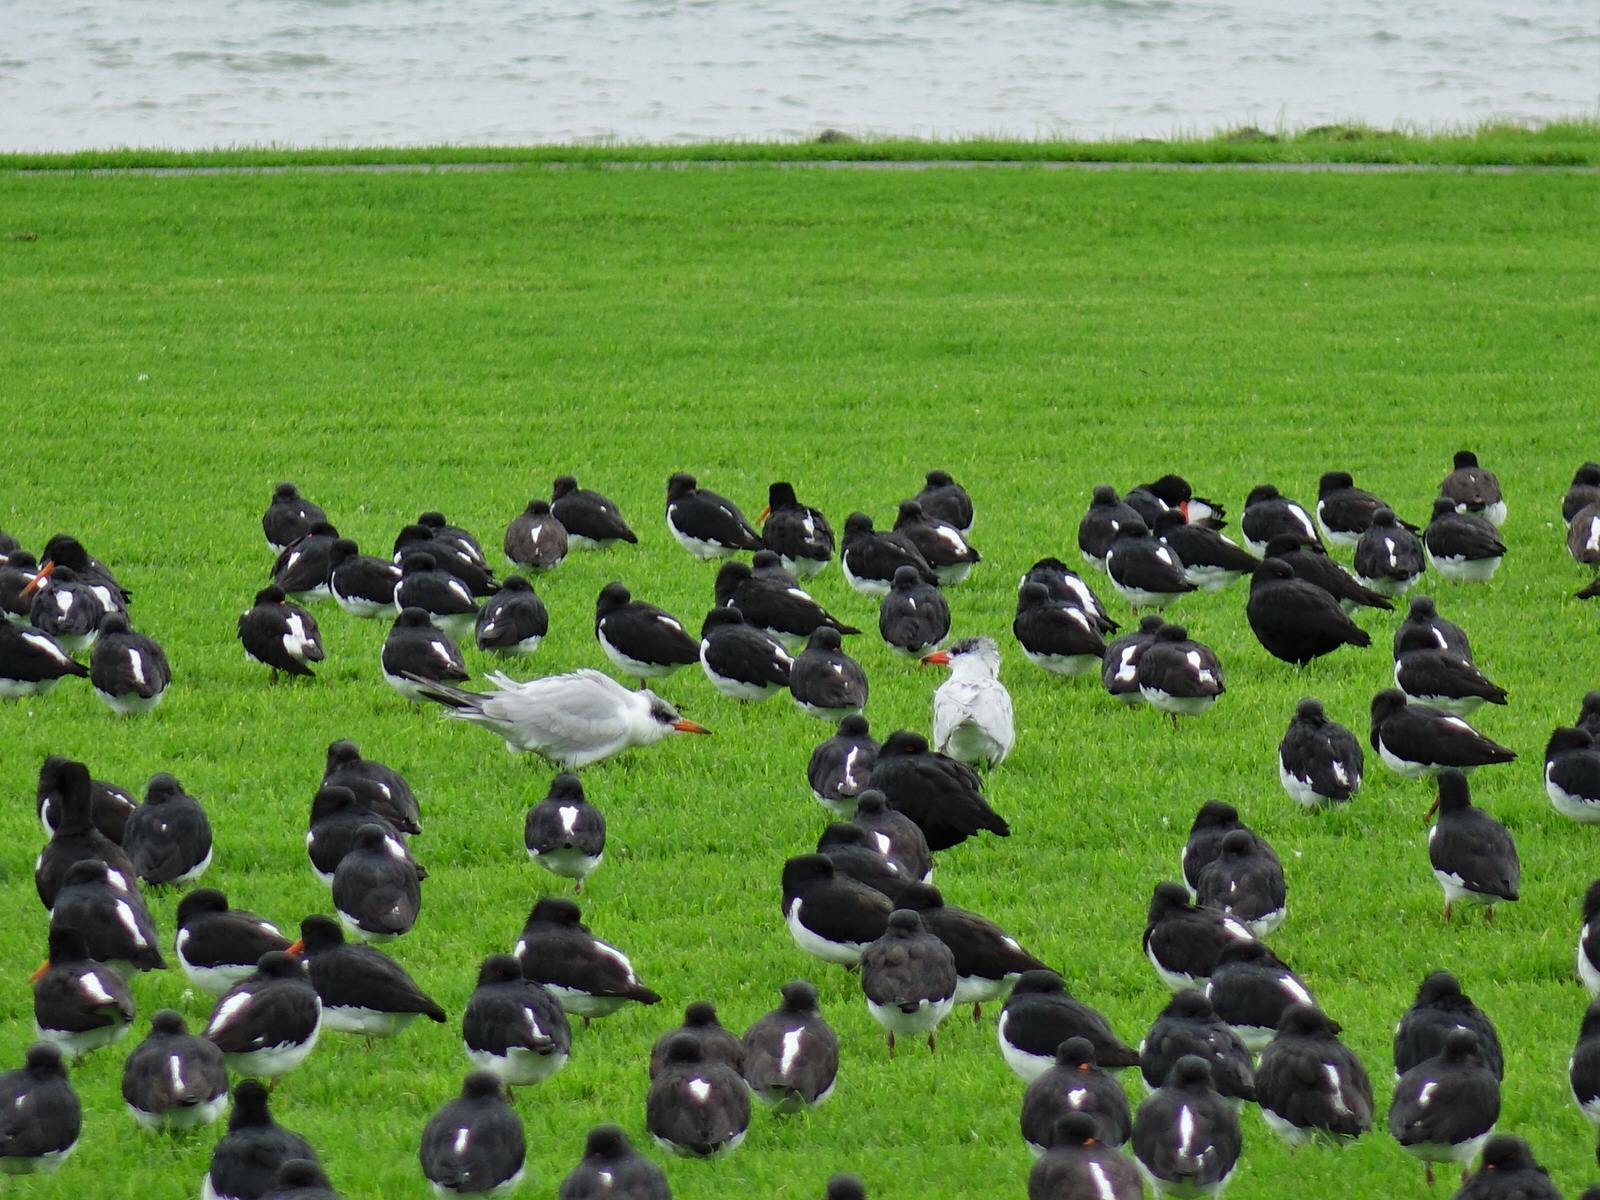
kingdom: Animalia
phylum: Chordata
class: Aves
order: Charadriiformes
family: Laridae
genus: Hydroprogne
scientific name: Hydroprogne caspia
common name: Caspian tern
